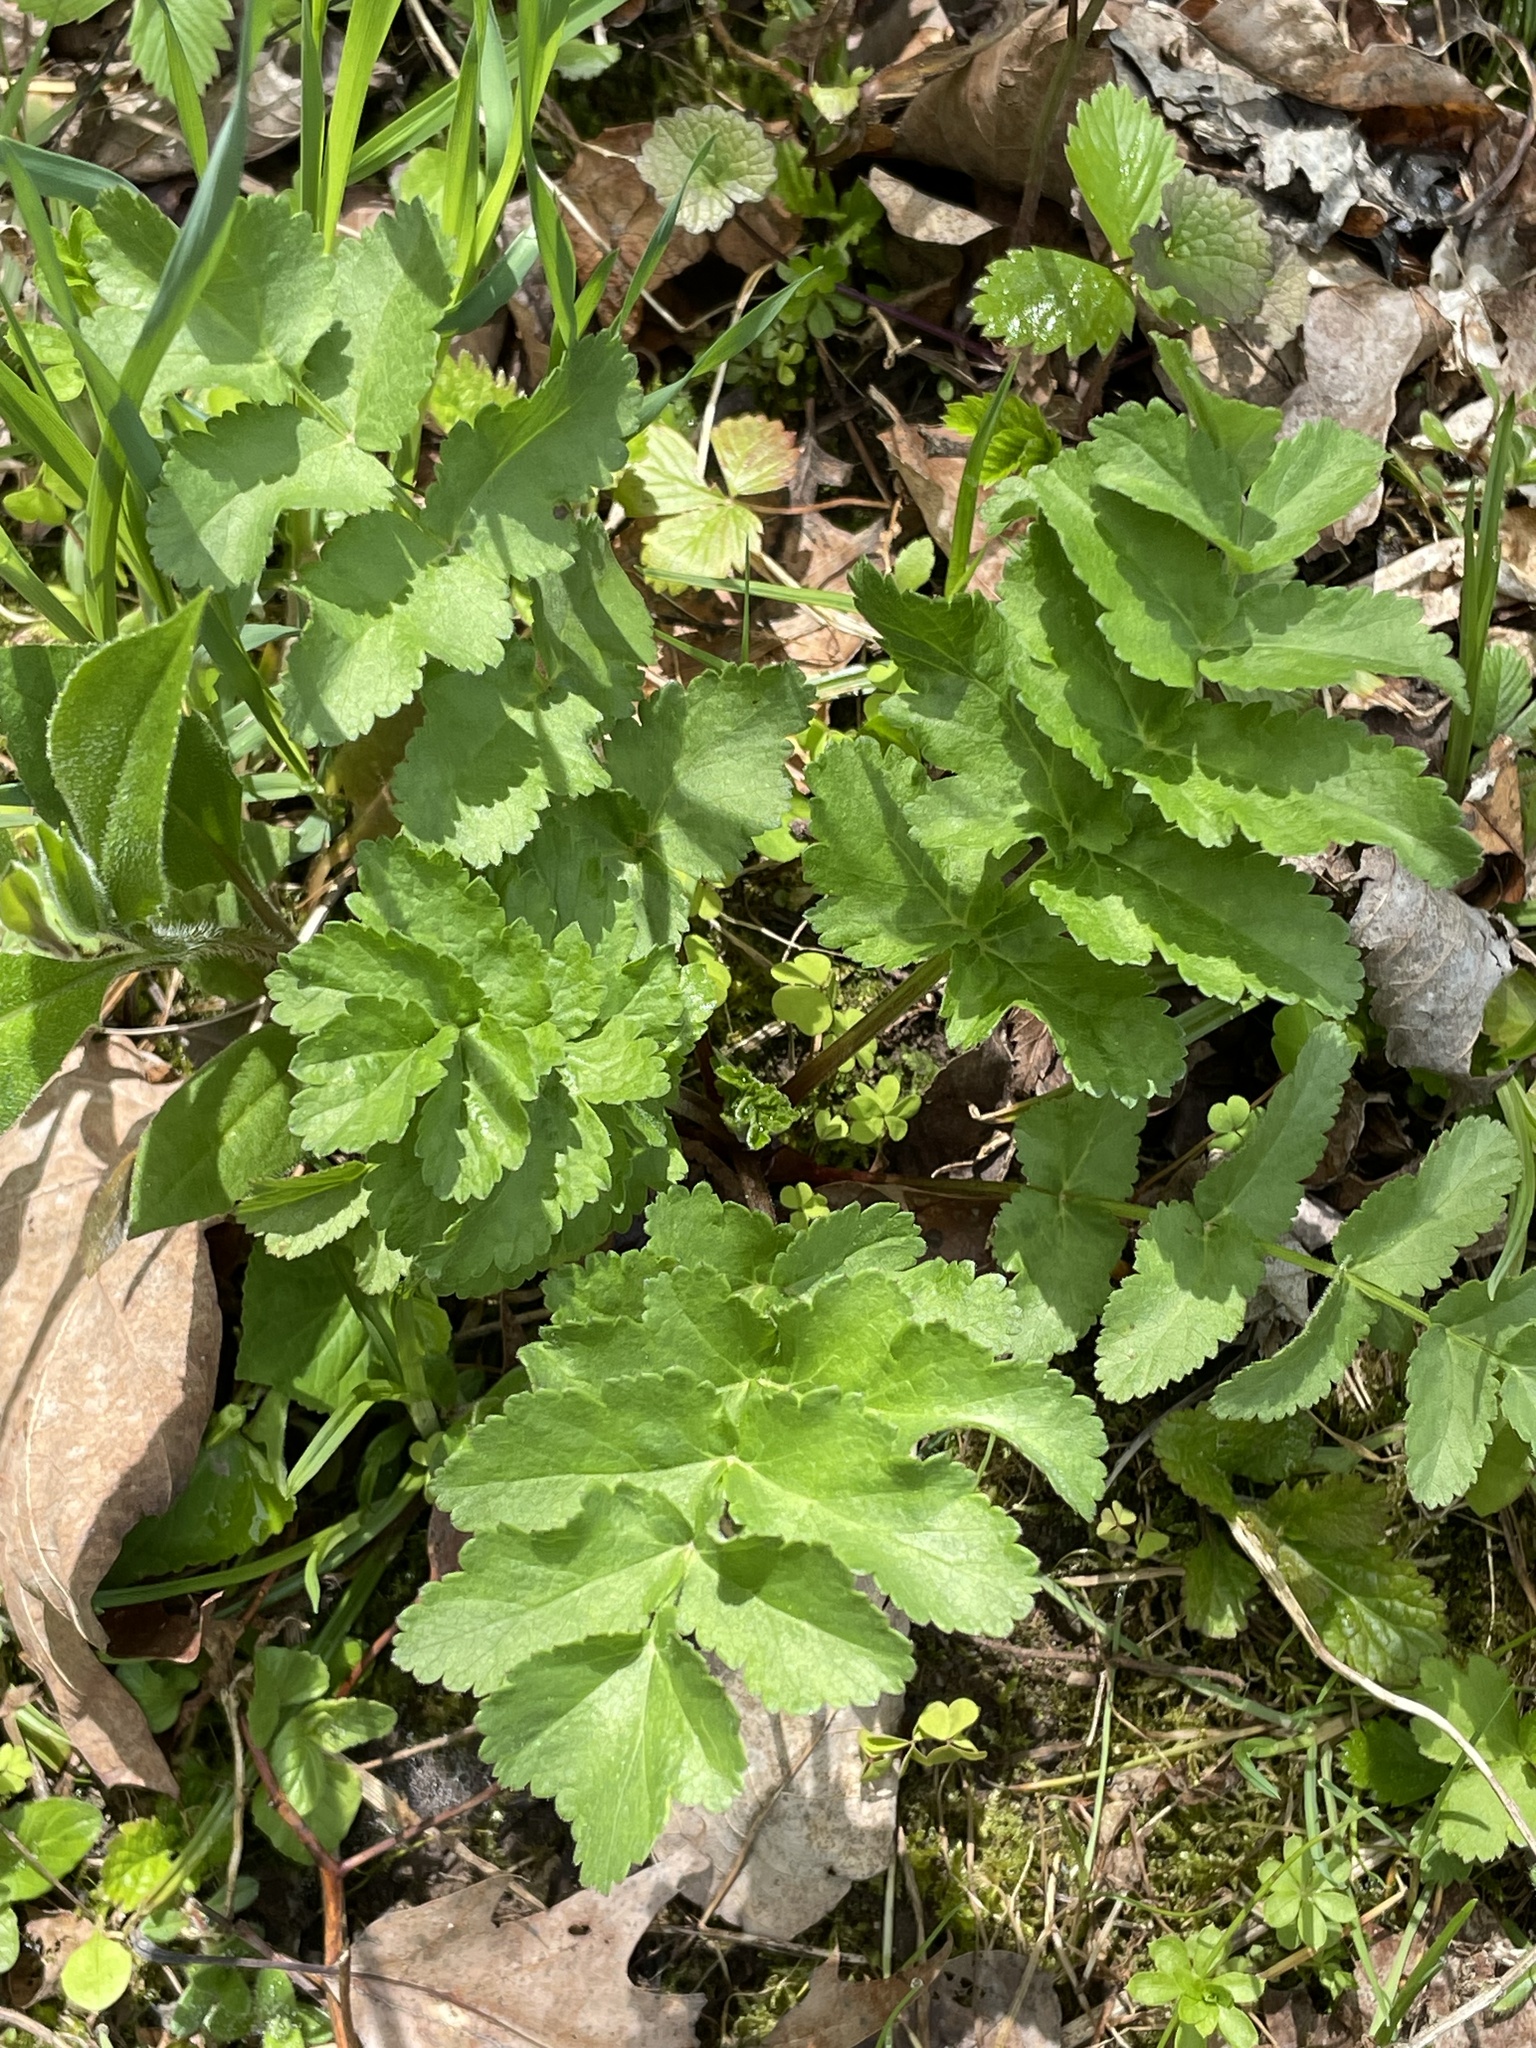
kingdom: Plantae
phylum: Tracheophyta
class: Magnoliopsida
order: Apiales
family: Apiaceae
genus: Pastinaca
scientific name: Pastinaca sativa
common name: Wild parsnip
